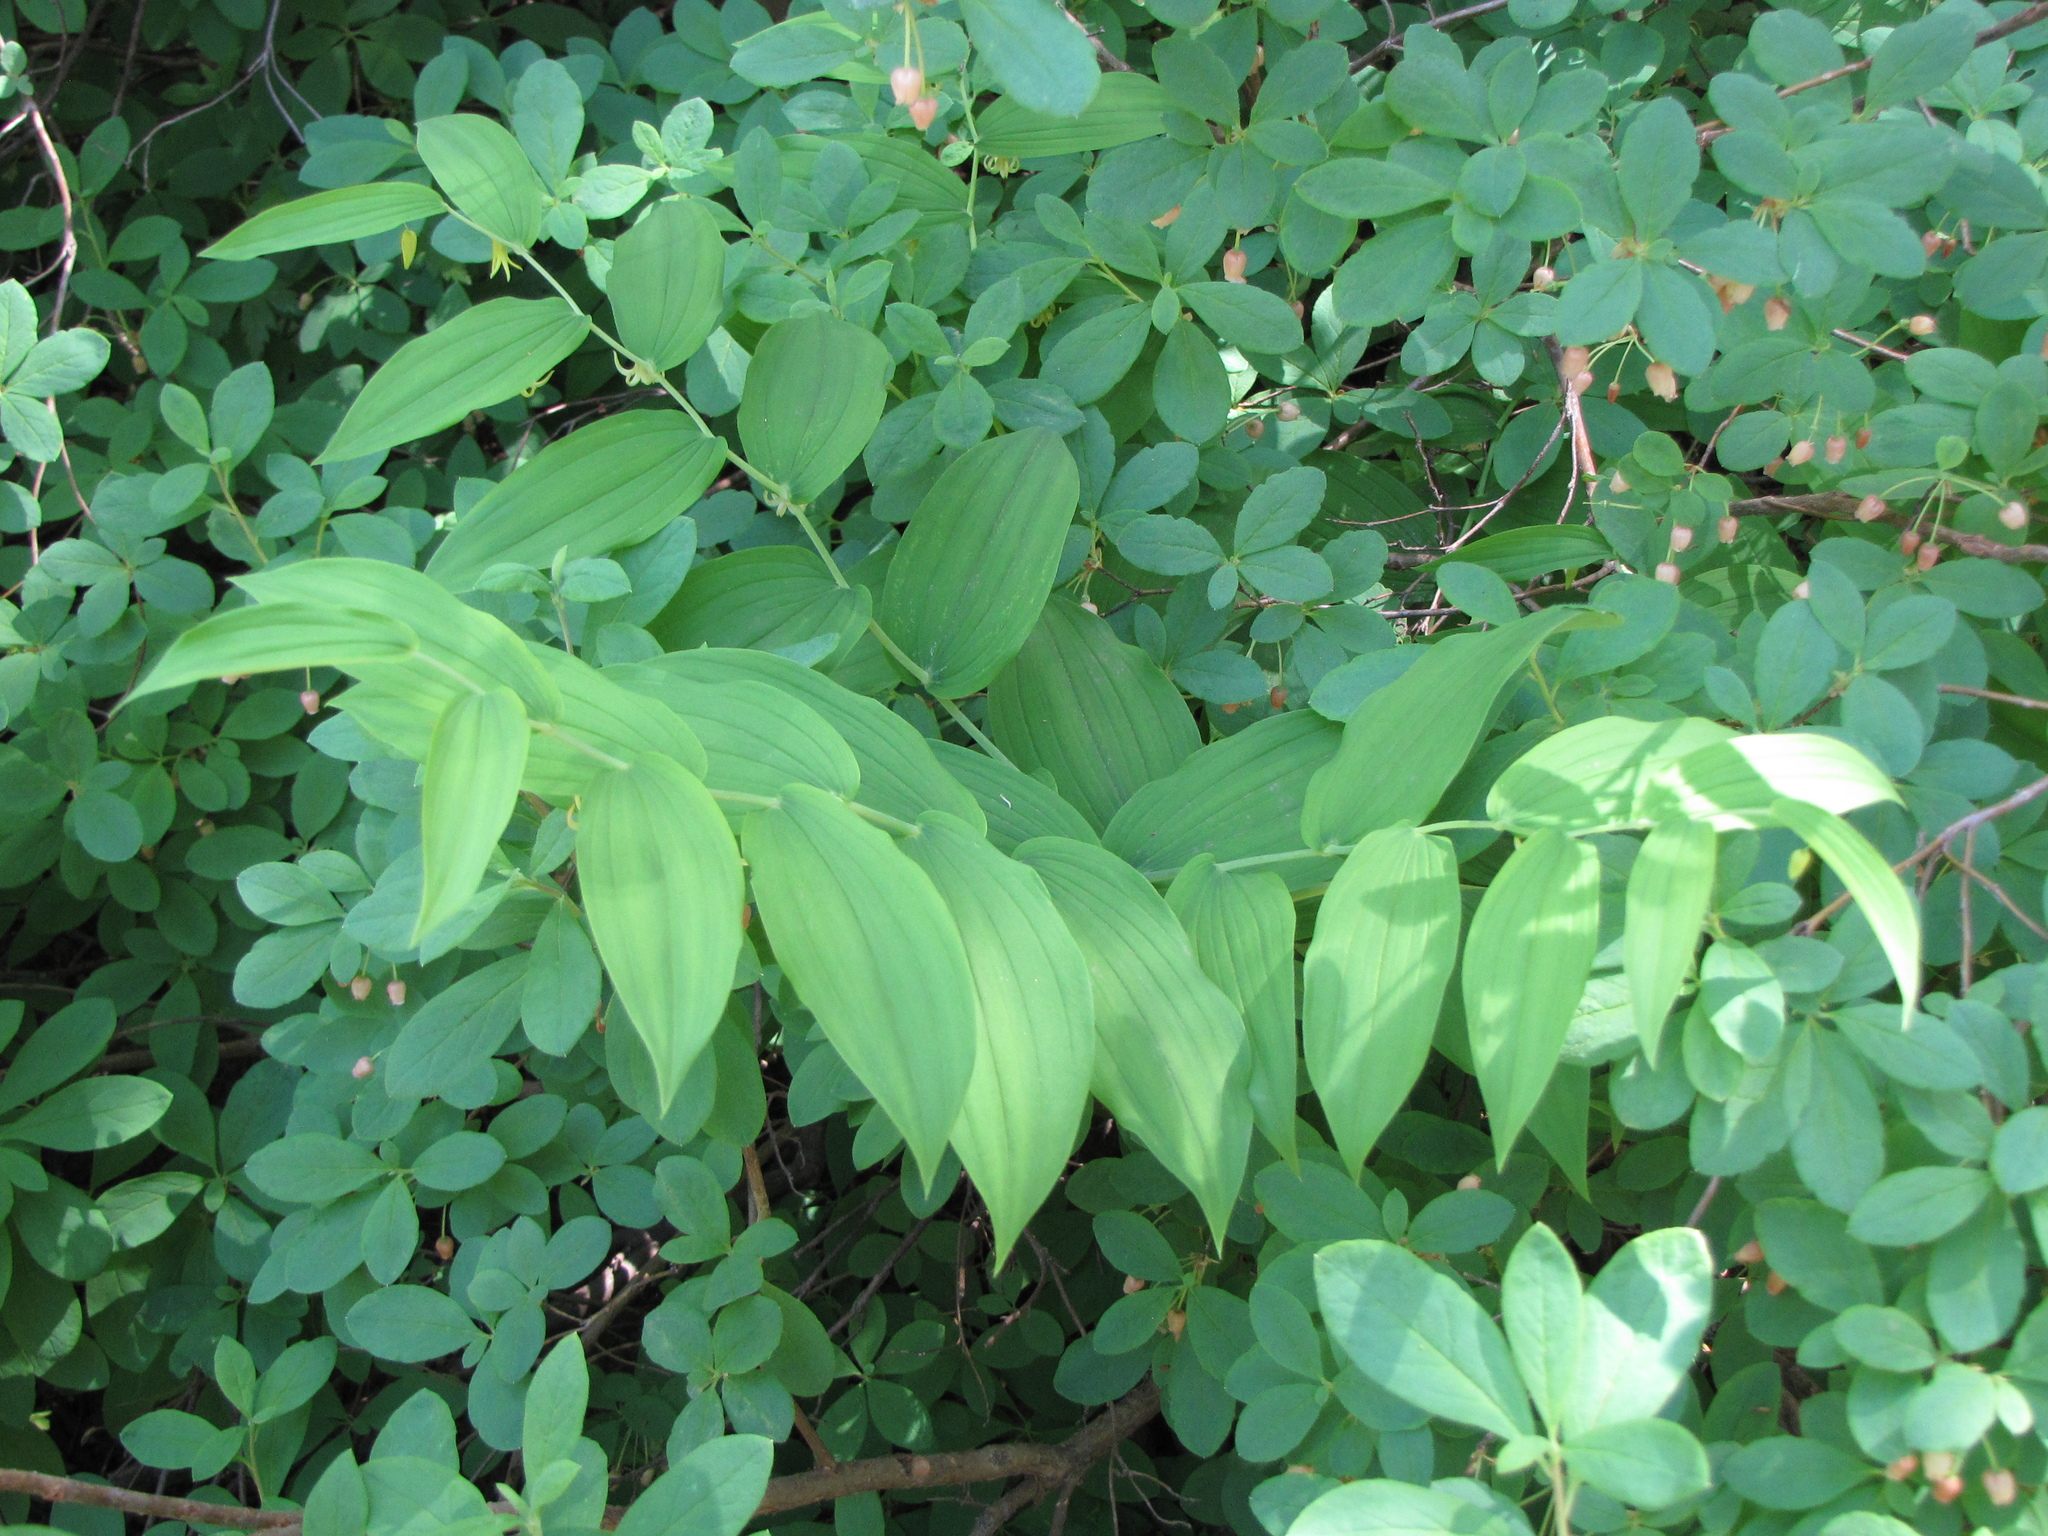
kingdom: Plantae
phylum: Tracheophyta
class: Liliopsida
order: Liliales
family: Liliaceae
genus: Streptopus
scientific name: Streptopus amplexifolius
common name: Clasp twisted stalk
